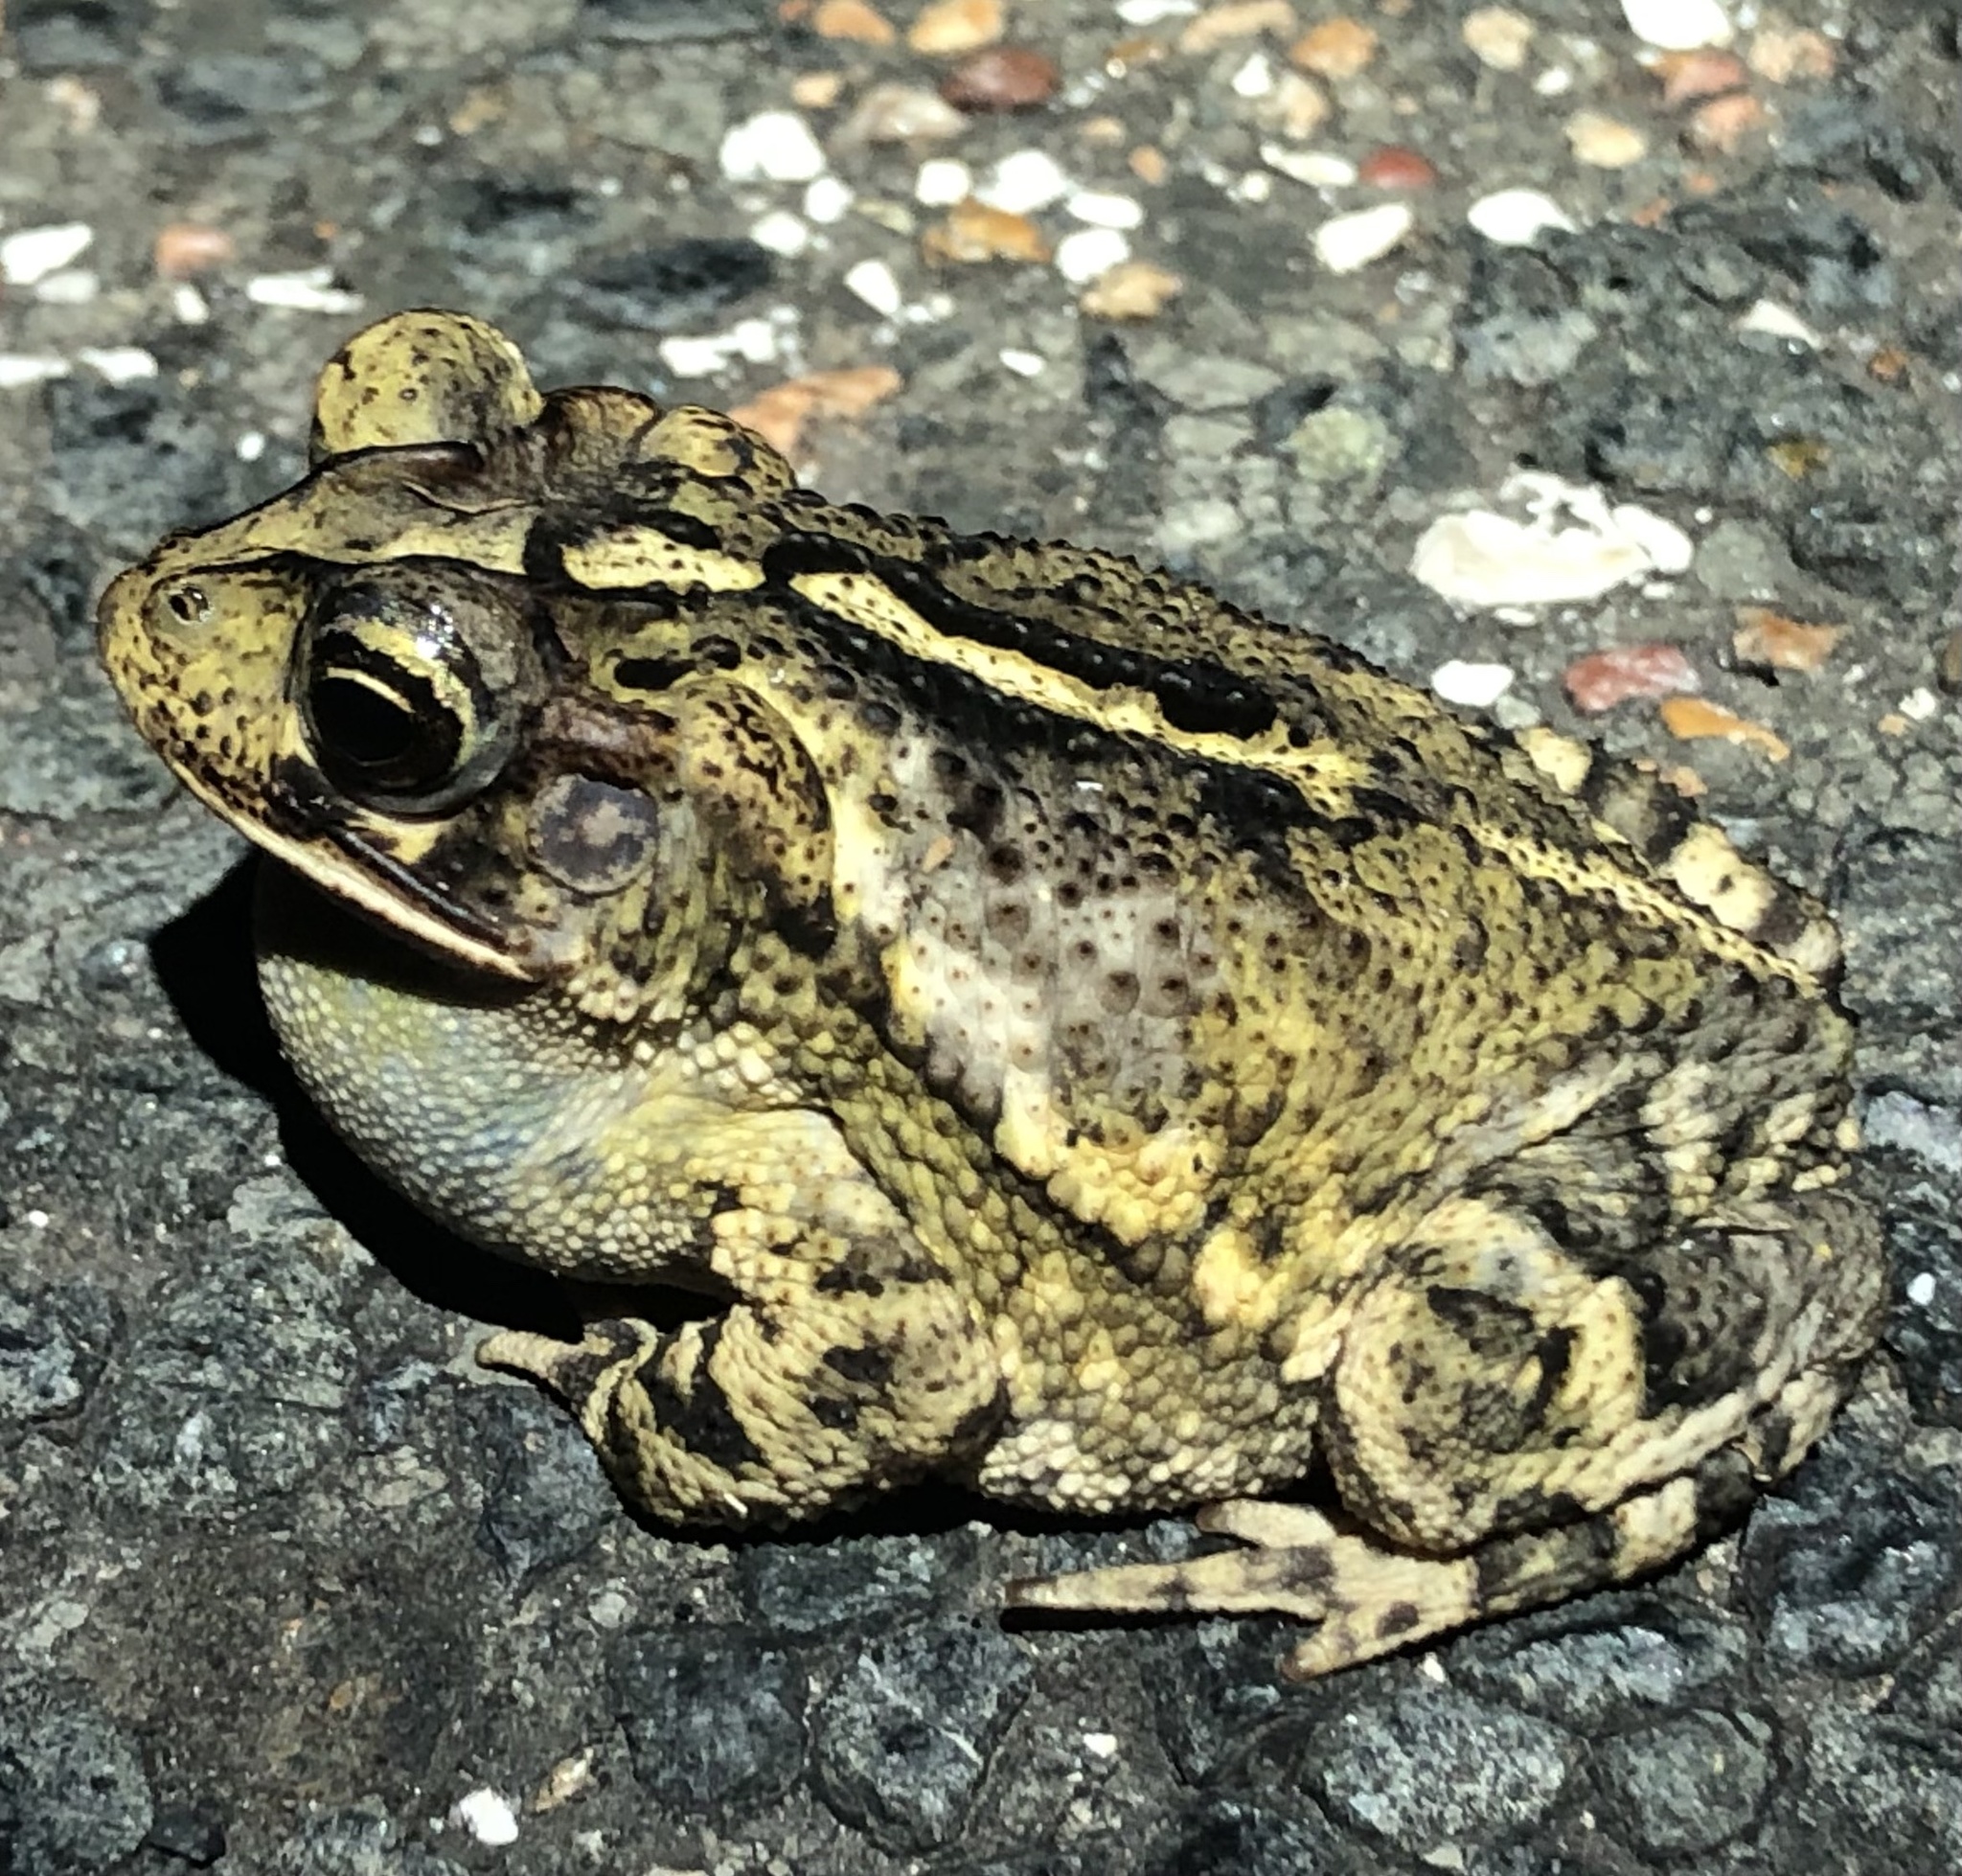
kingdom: Animalia
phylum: Chordata
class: Amphibia
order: Anura
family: Bufonidae
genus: Incilius
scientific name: Incilius nebulifer
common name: Gulf coast toad
